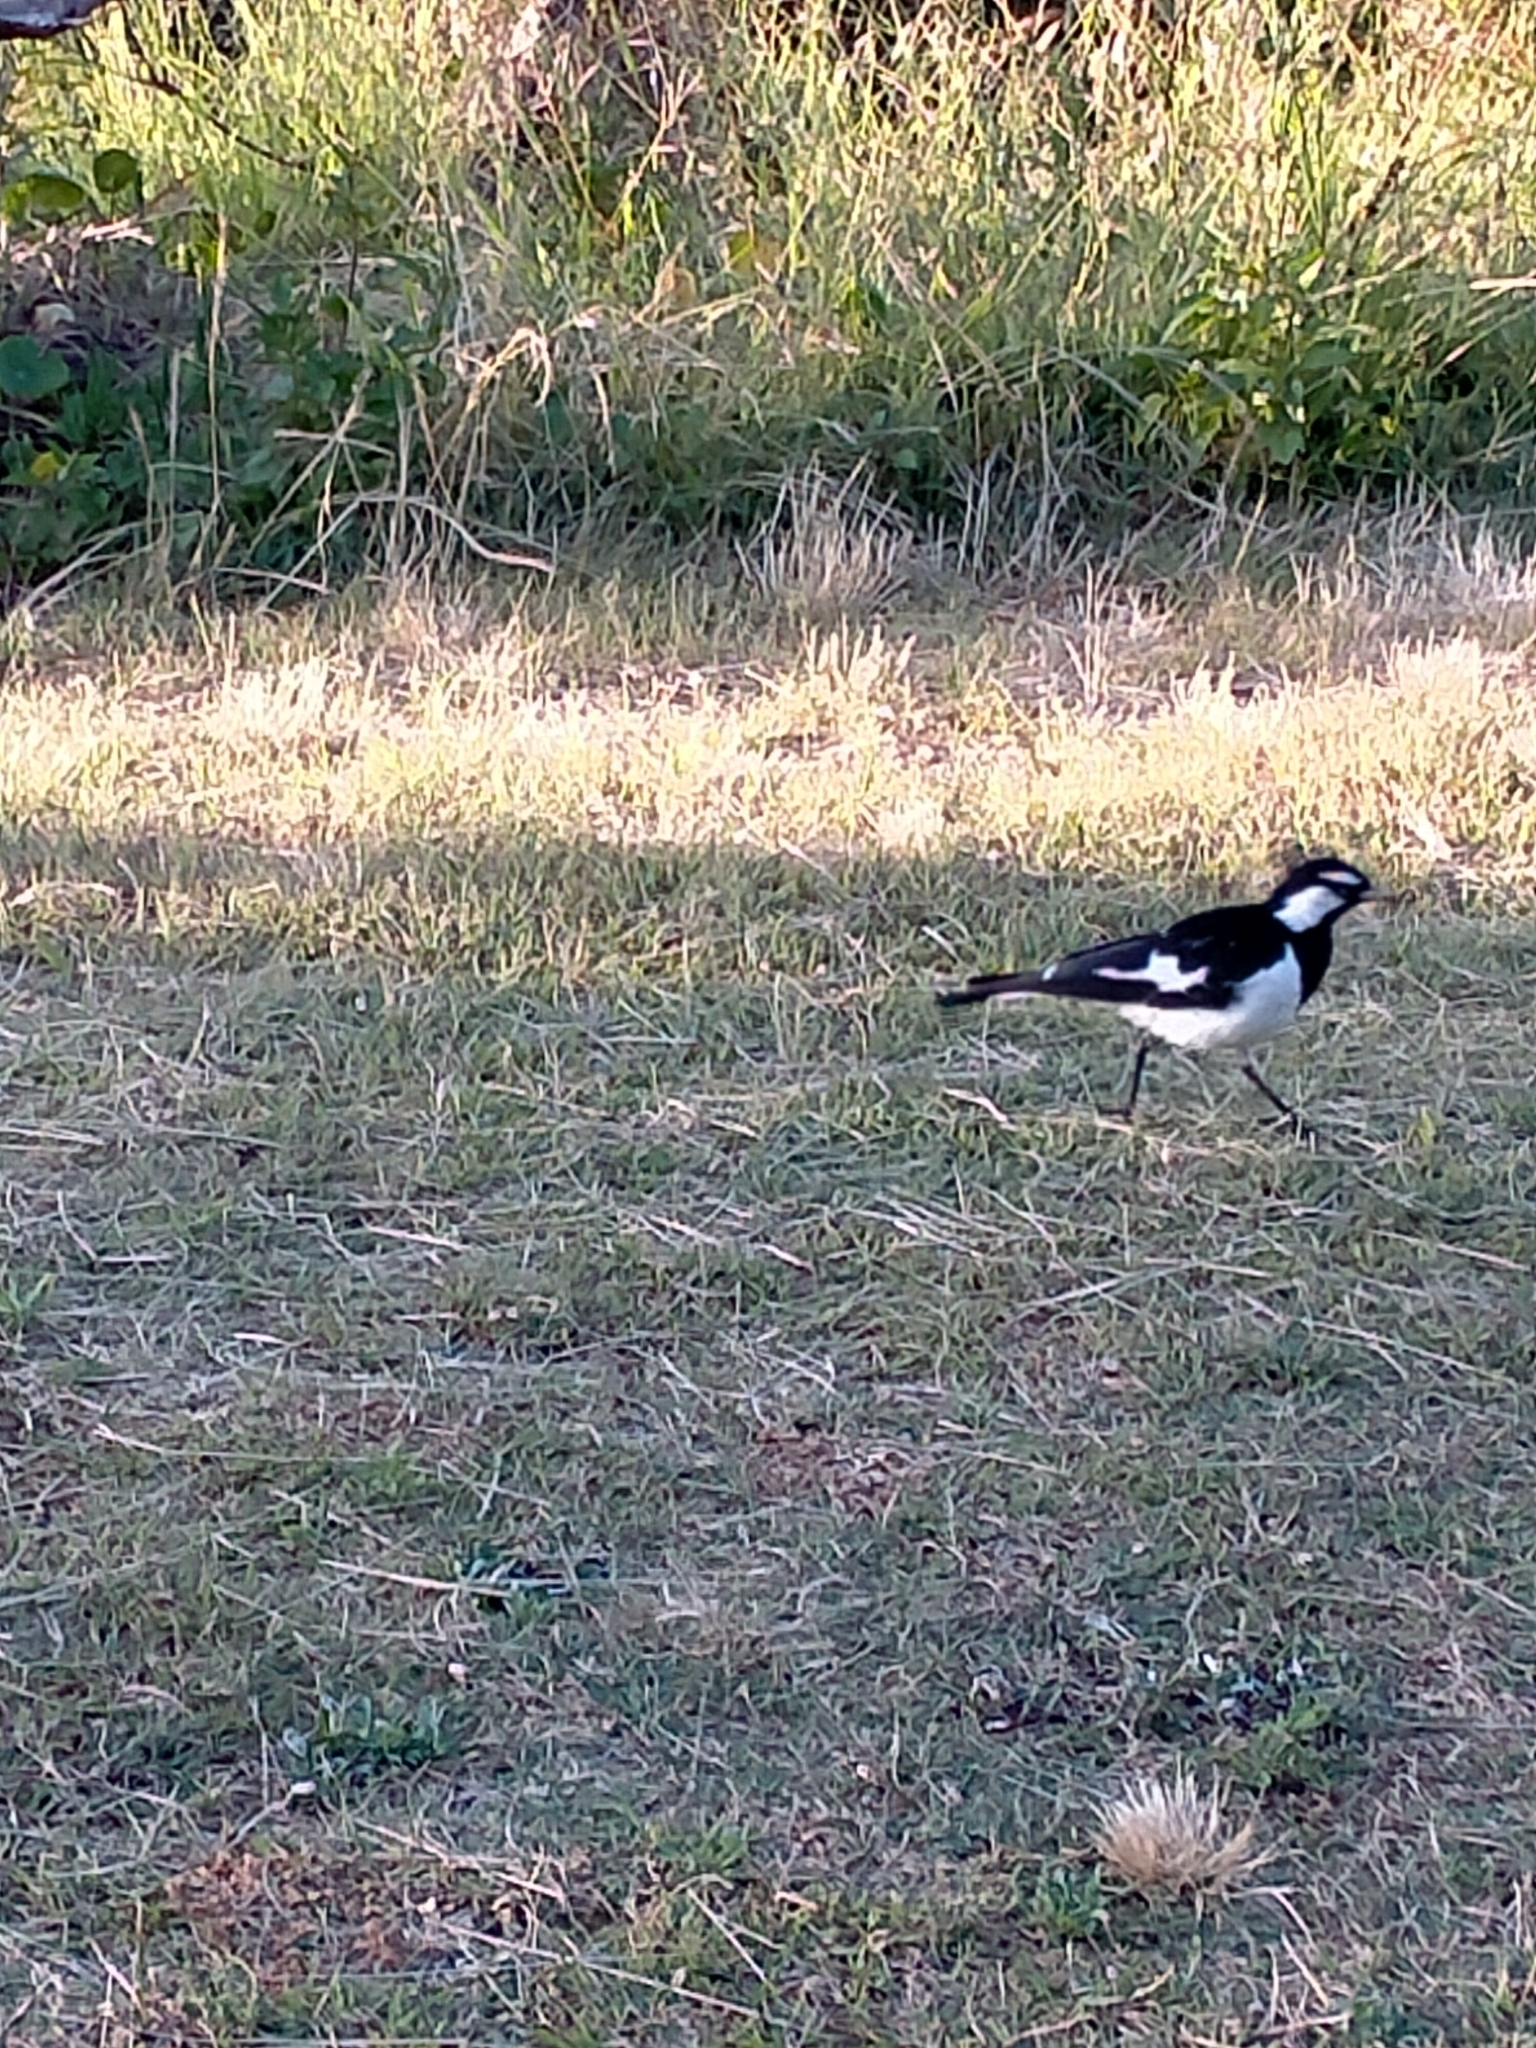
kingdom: Animalia
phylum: Chordata
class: Aves
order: Passeriformes
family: Monarchidae
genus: Grallina
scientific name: Grallina cyanoleuca
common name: Magpie-lark
